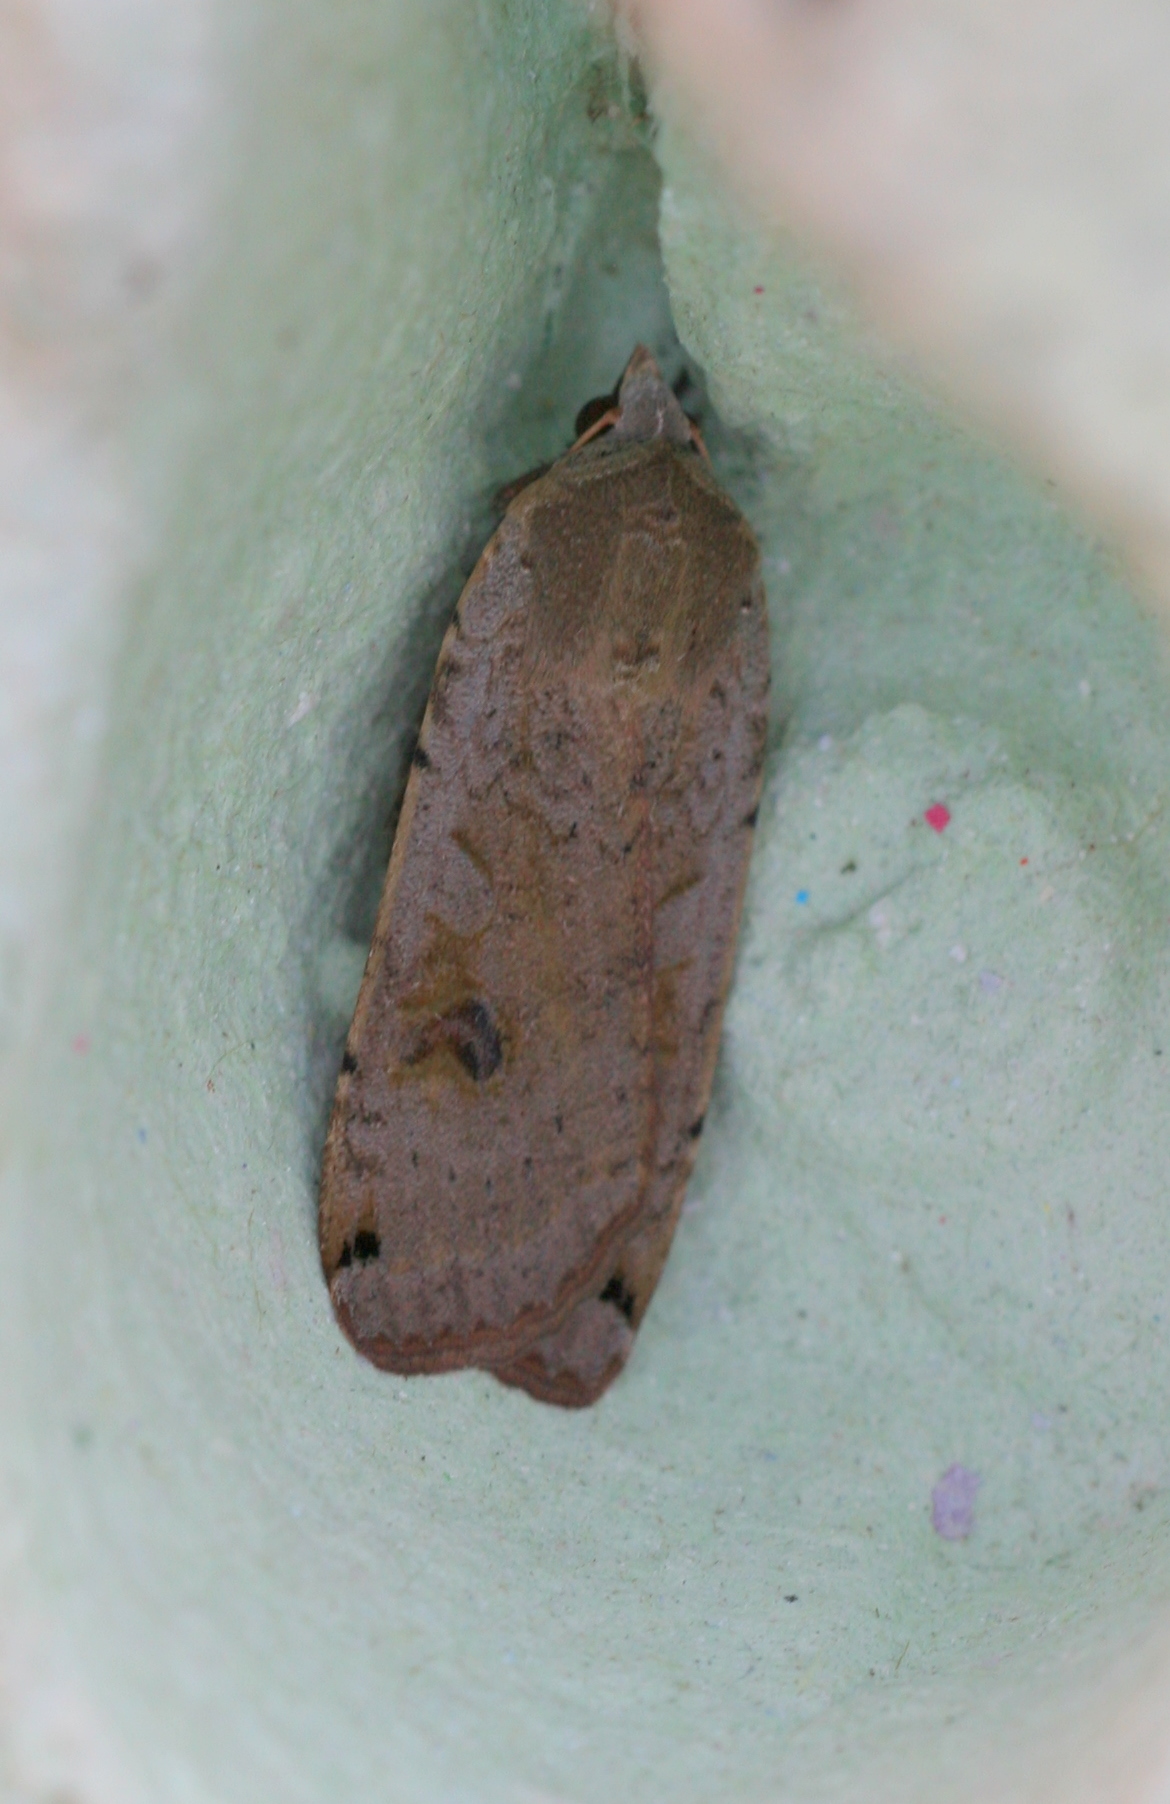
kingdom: Animalia
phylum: Arthropoda
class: Insecta
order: Lepidoptera
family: Noctuidae
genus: Noctua
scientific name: Noctua pronuba
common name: Large yellow underwing
